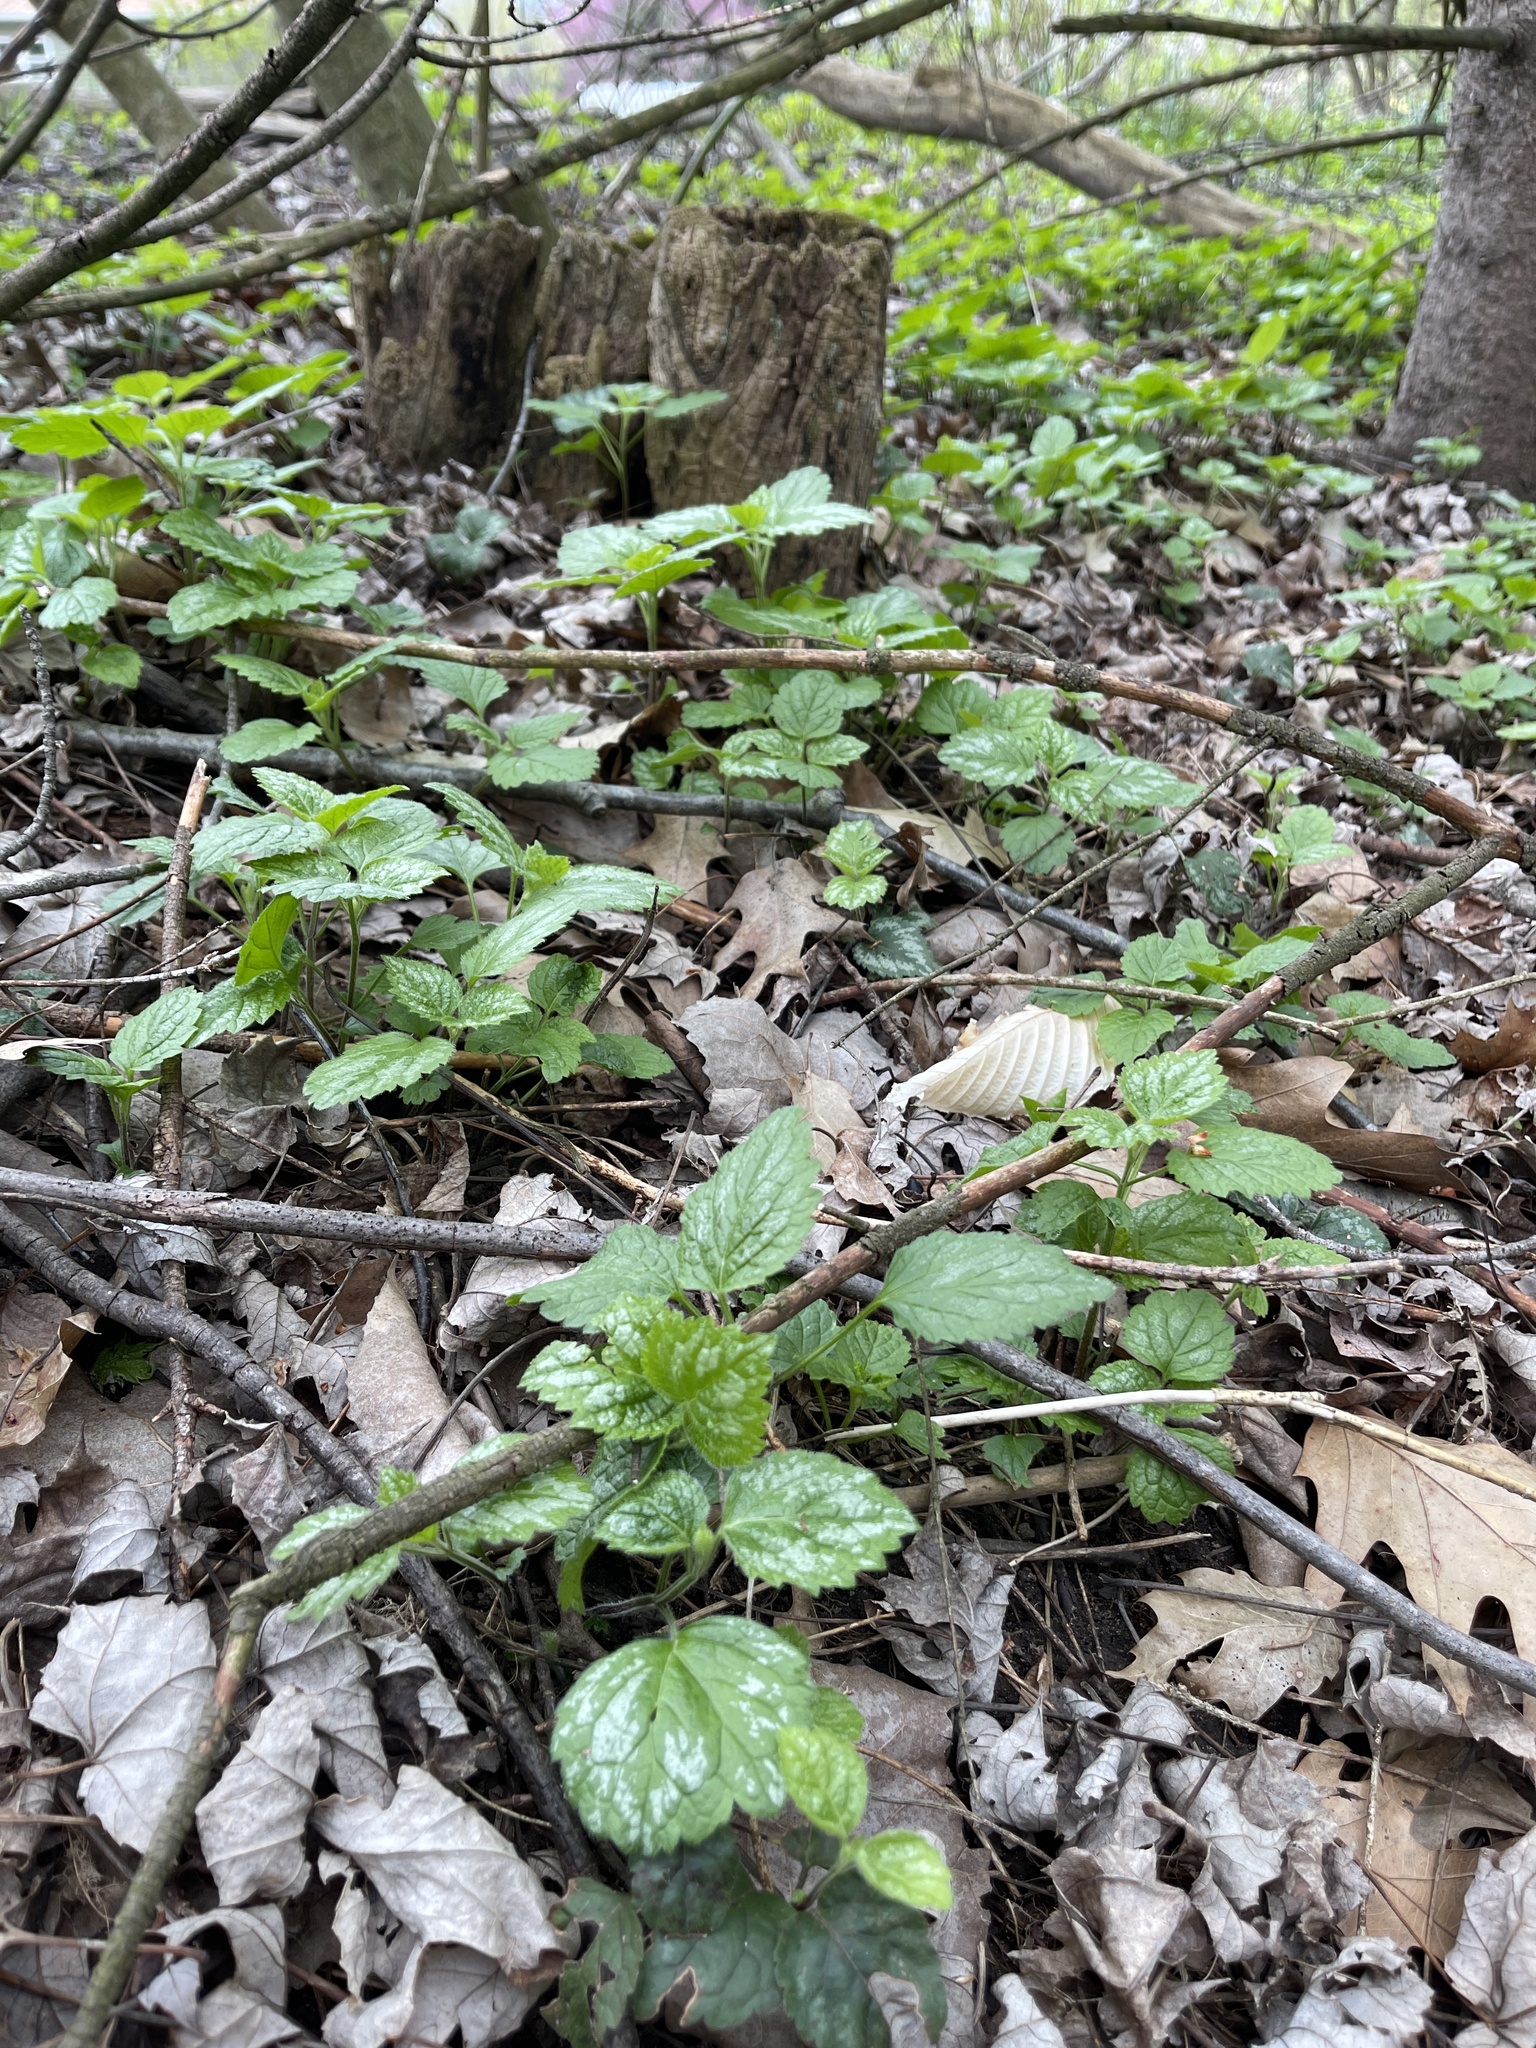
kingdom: Plantae
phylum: Tracheophyta
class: Magnoliopsida
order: Lamiales
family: Lamiaceae
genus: Lamium
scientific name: Lamium galeobdolon
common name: Yellow archangel
